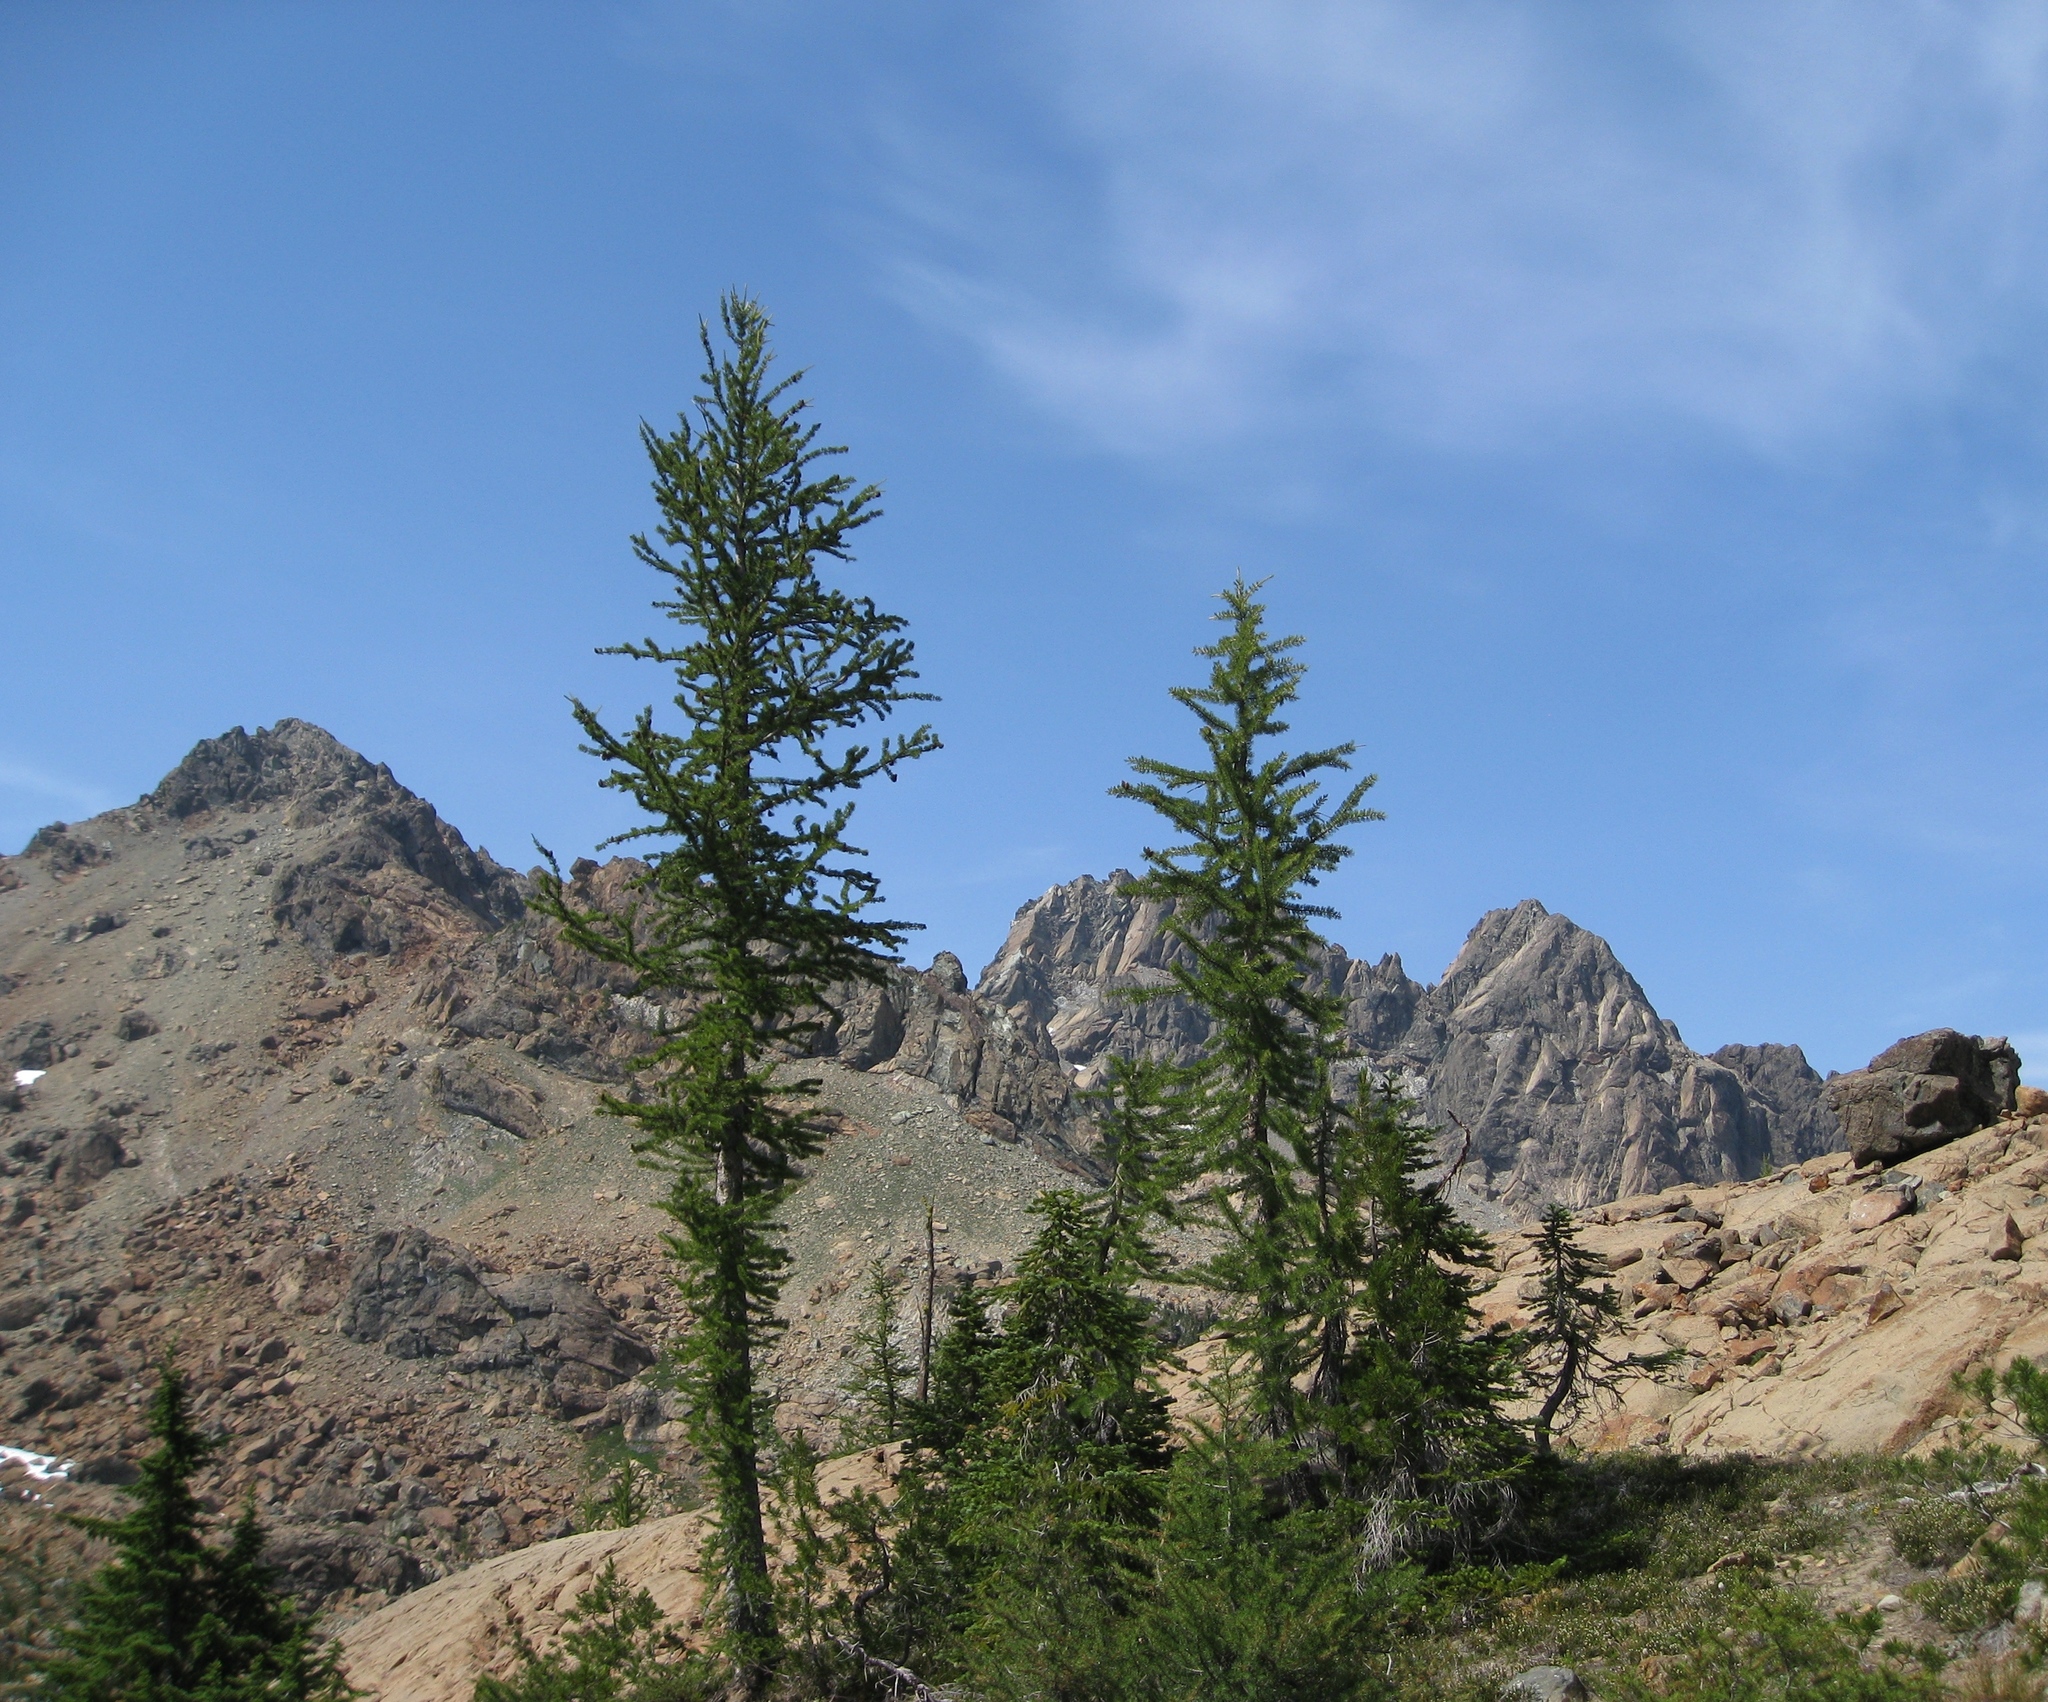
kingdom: Plantae
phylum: Tracheophyta
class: Pinopsida
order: Pinales
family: Pinaceae
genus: Larix
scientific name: Larix lyallii
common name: Alpine larch
